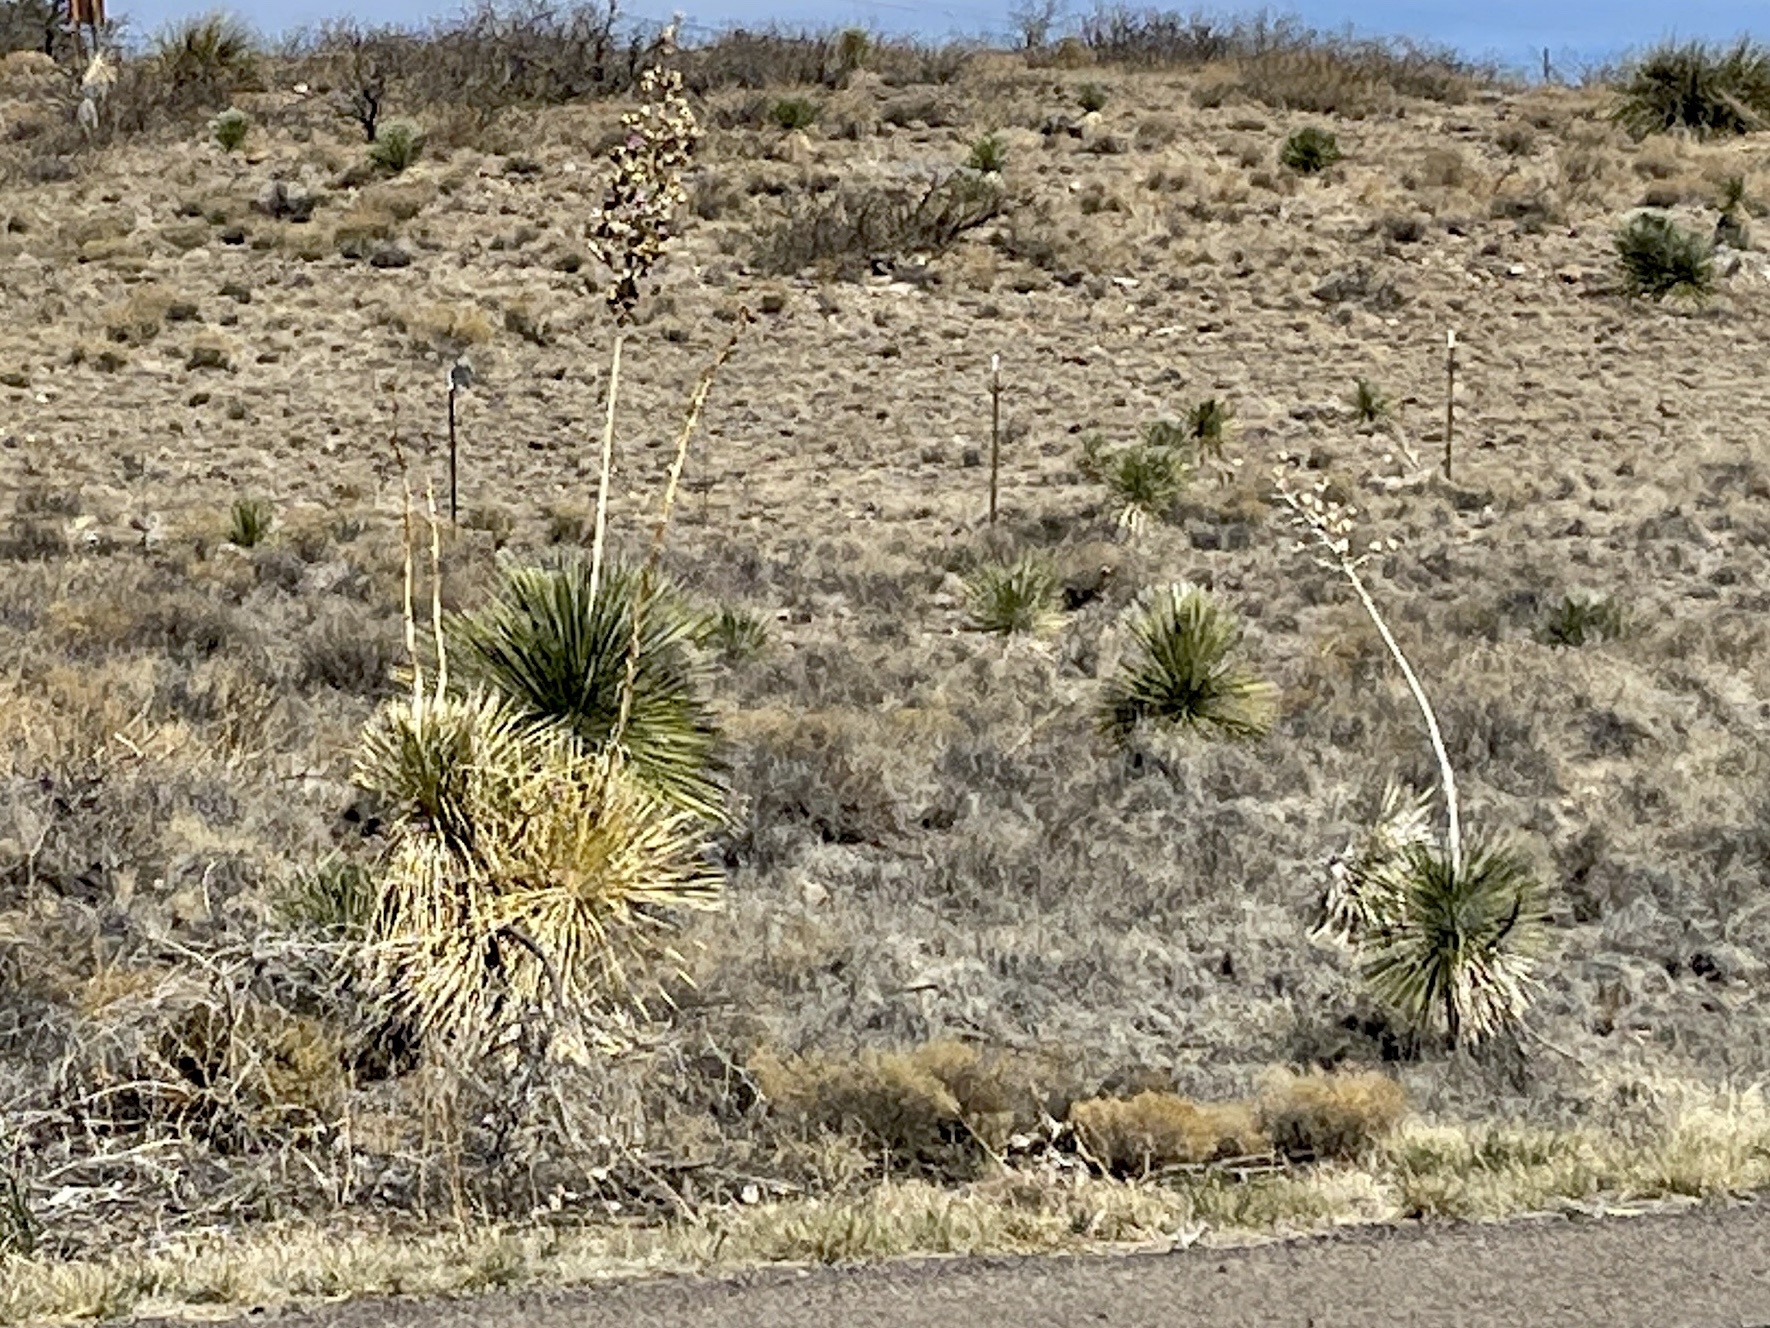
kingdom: Plantae
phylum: Tracheophyta
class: Liliopsida
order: Asparagales
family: Asparagaceae
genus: Yucca
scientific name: Yucca elata
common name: Palmella
